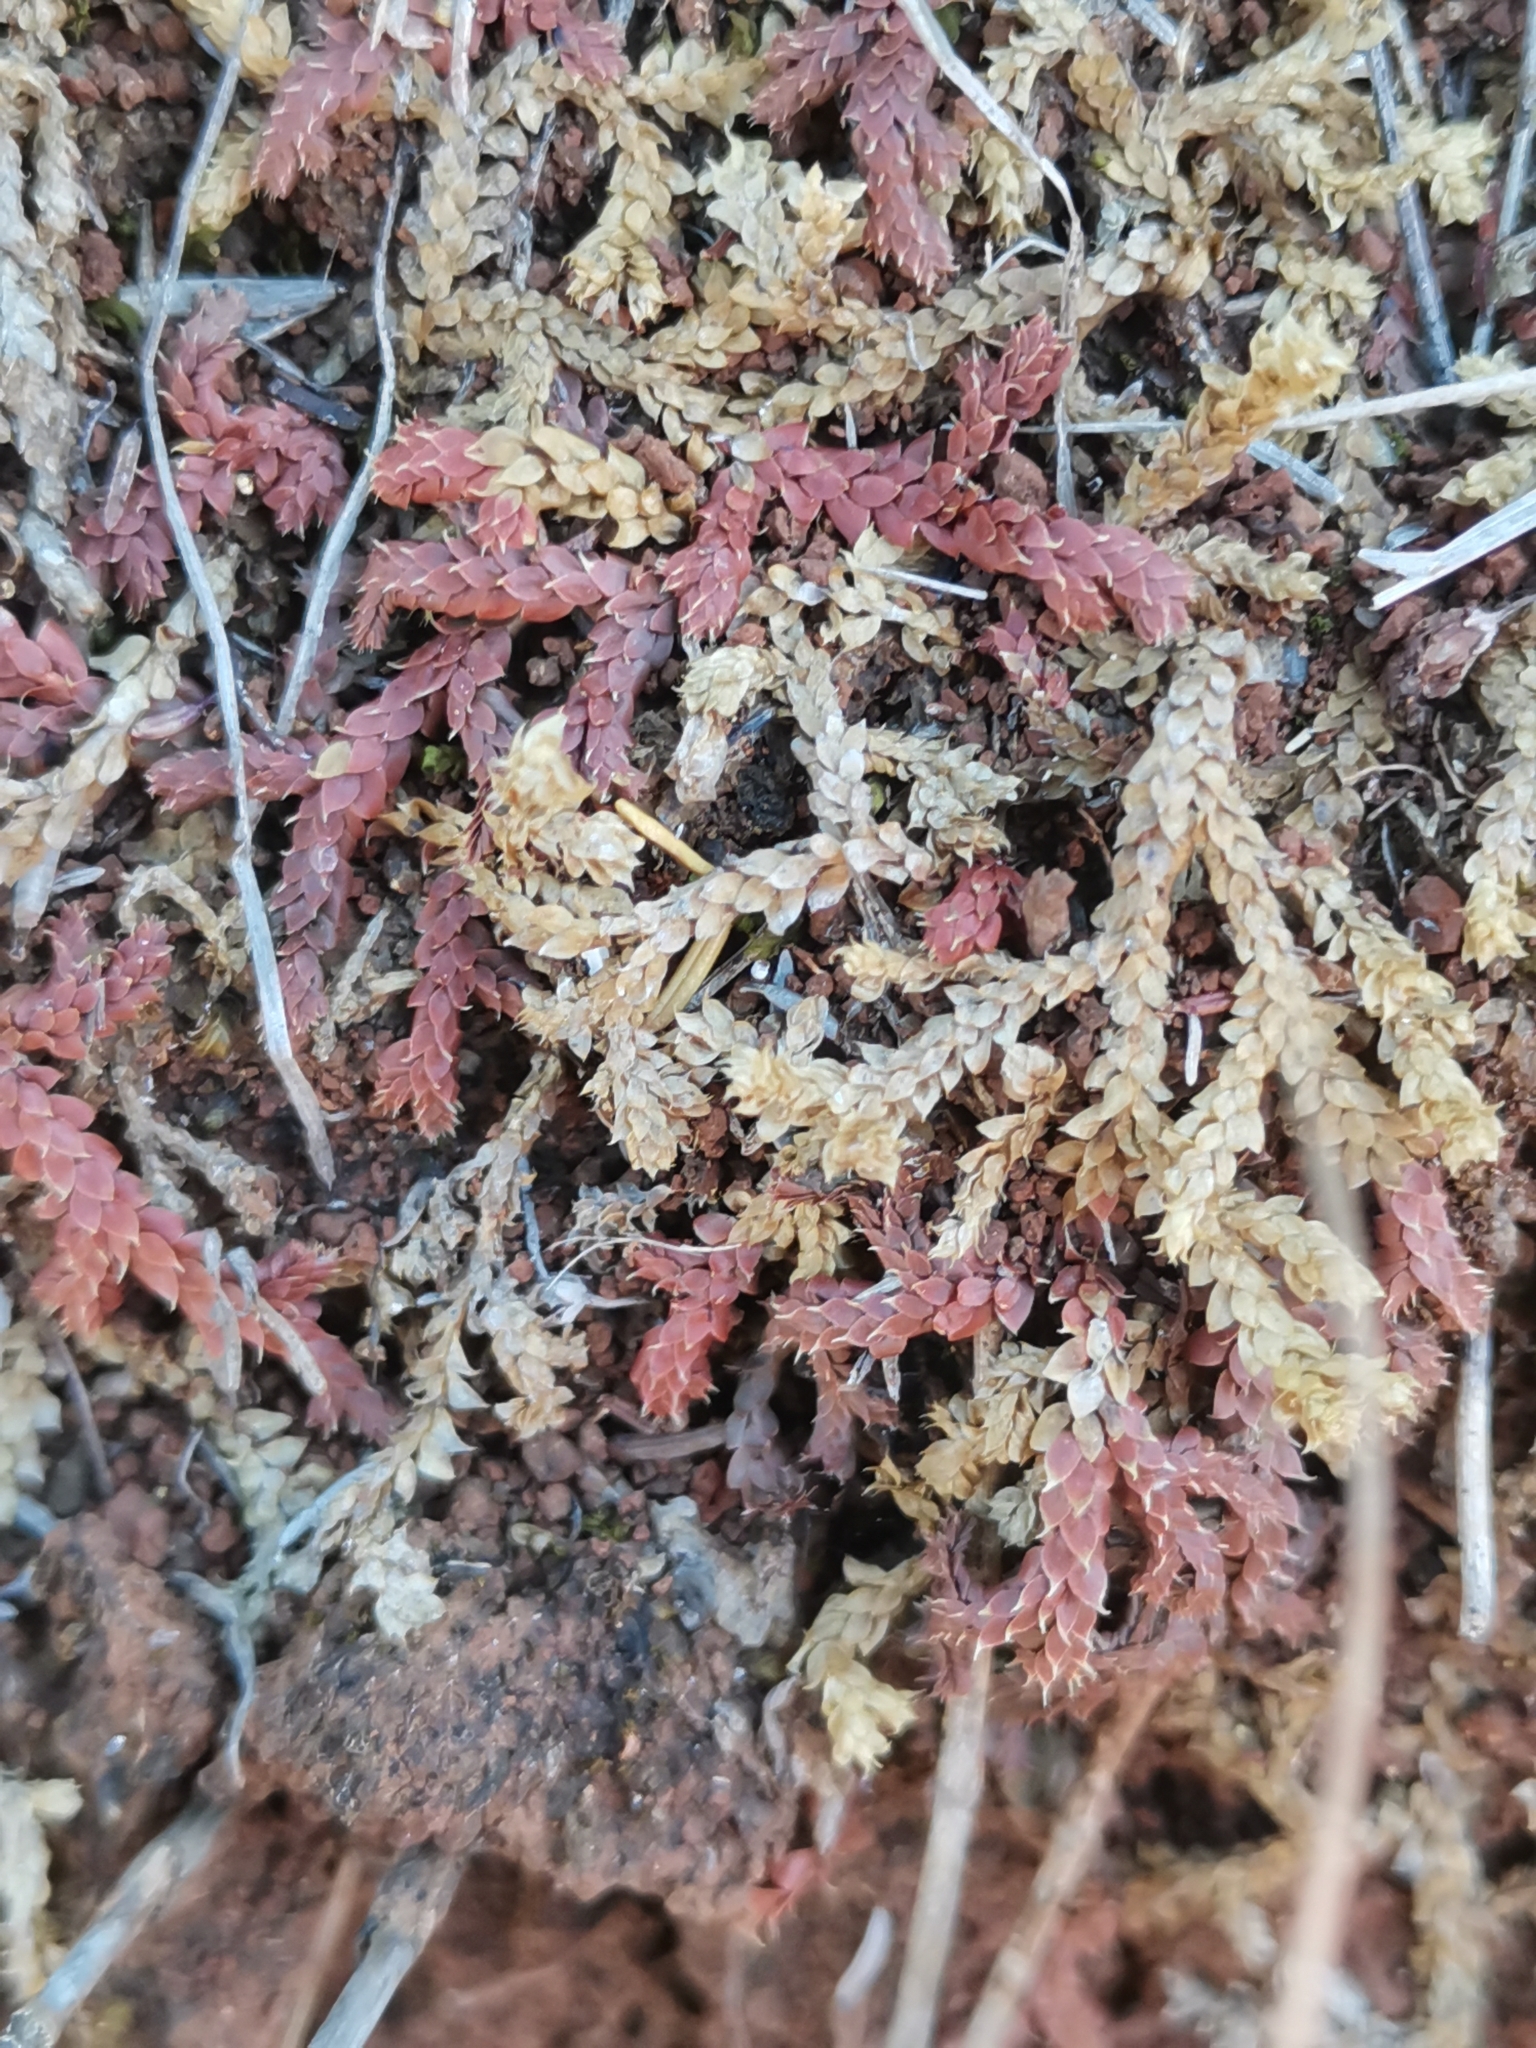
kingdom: Plantae
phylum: Tracheophyta
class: Lycopodiopsida
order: Selaginellales
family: Selaginellaceae
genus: Selaginella
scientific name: Selaginella denticulata
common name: Toothed-leaved clubmoss
